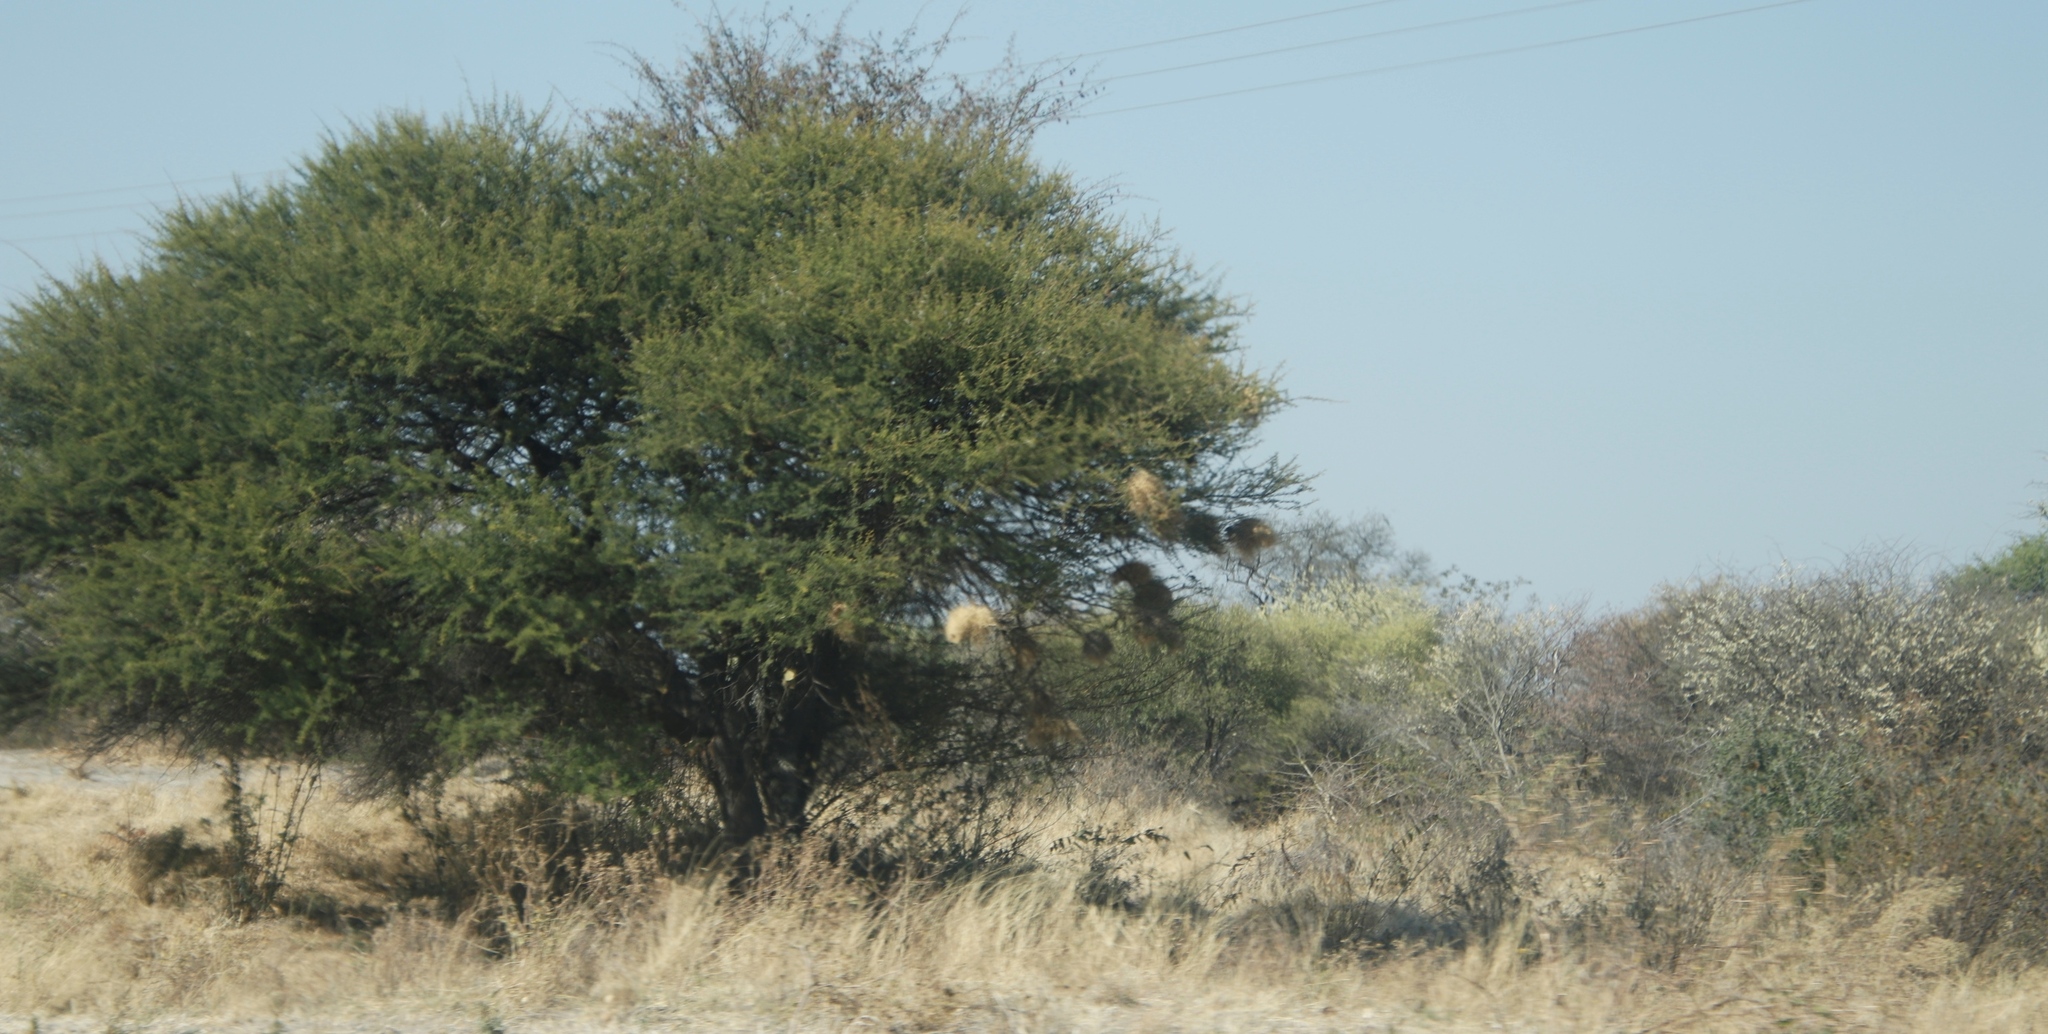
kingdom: Animalia
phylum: Chordata
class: Aves
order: Passeriformes
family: Passeridae
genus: Plocepasser
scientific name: Plocepasser mahali
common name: White-browed sparrow-weaver
